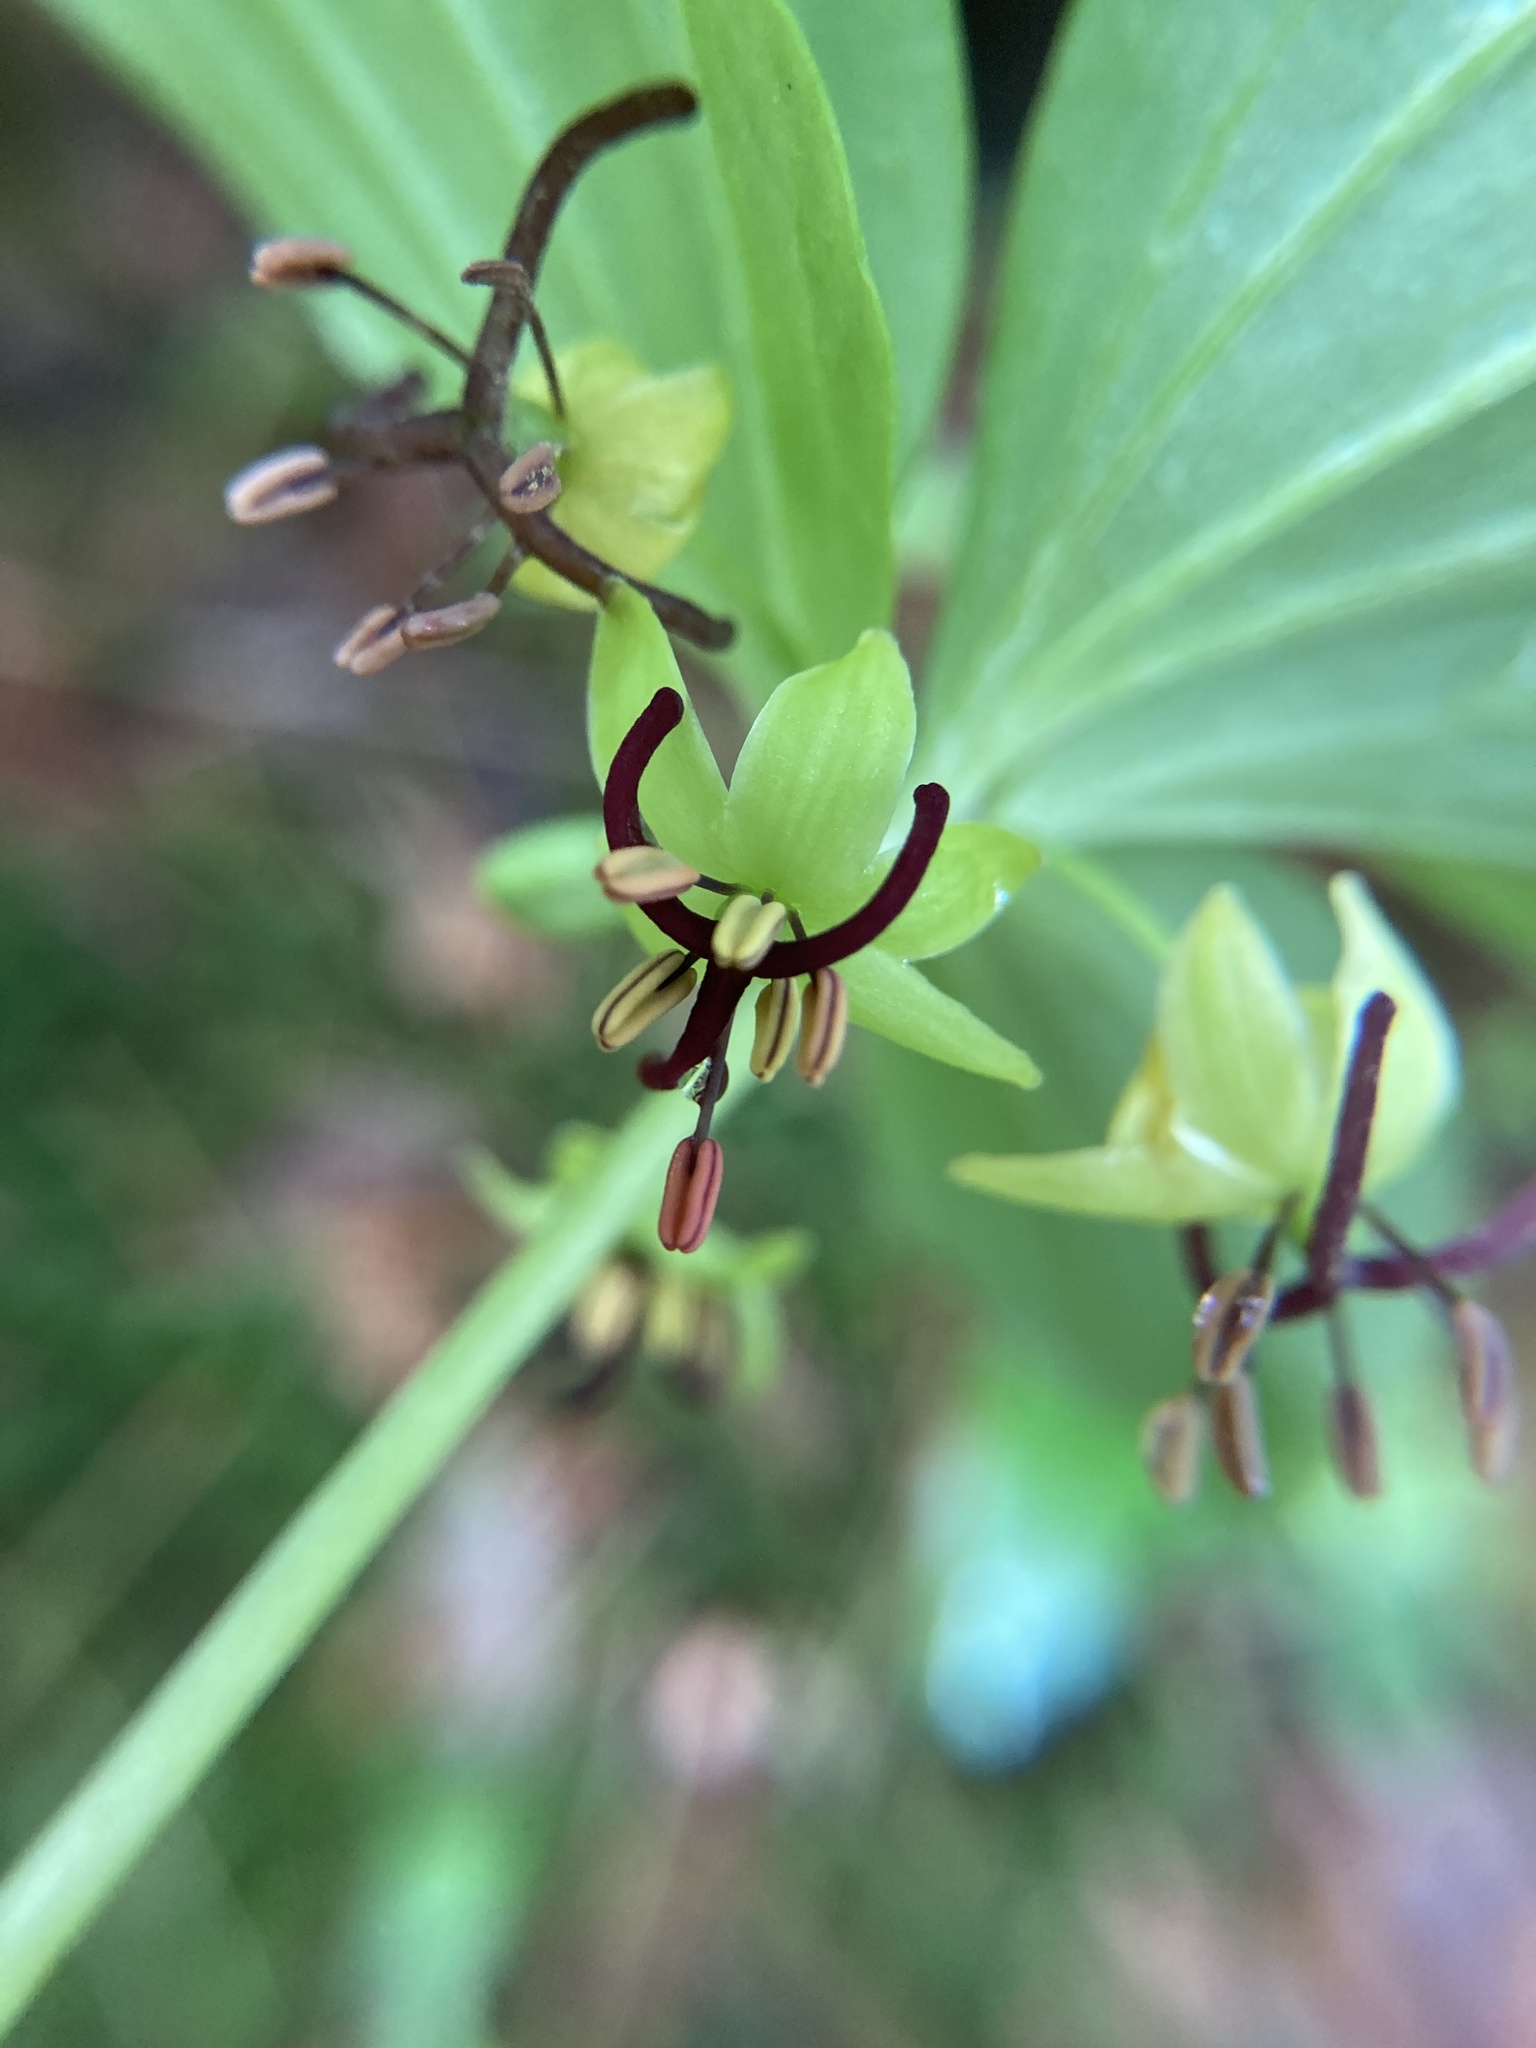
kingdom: Plantae
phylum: Tracheophyta
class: Liliopsida
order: Liliales
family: Liliaceae
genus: Medeola
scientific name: Medeola virginiana
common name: Indian cucumber-root
